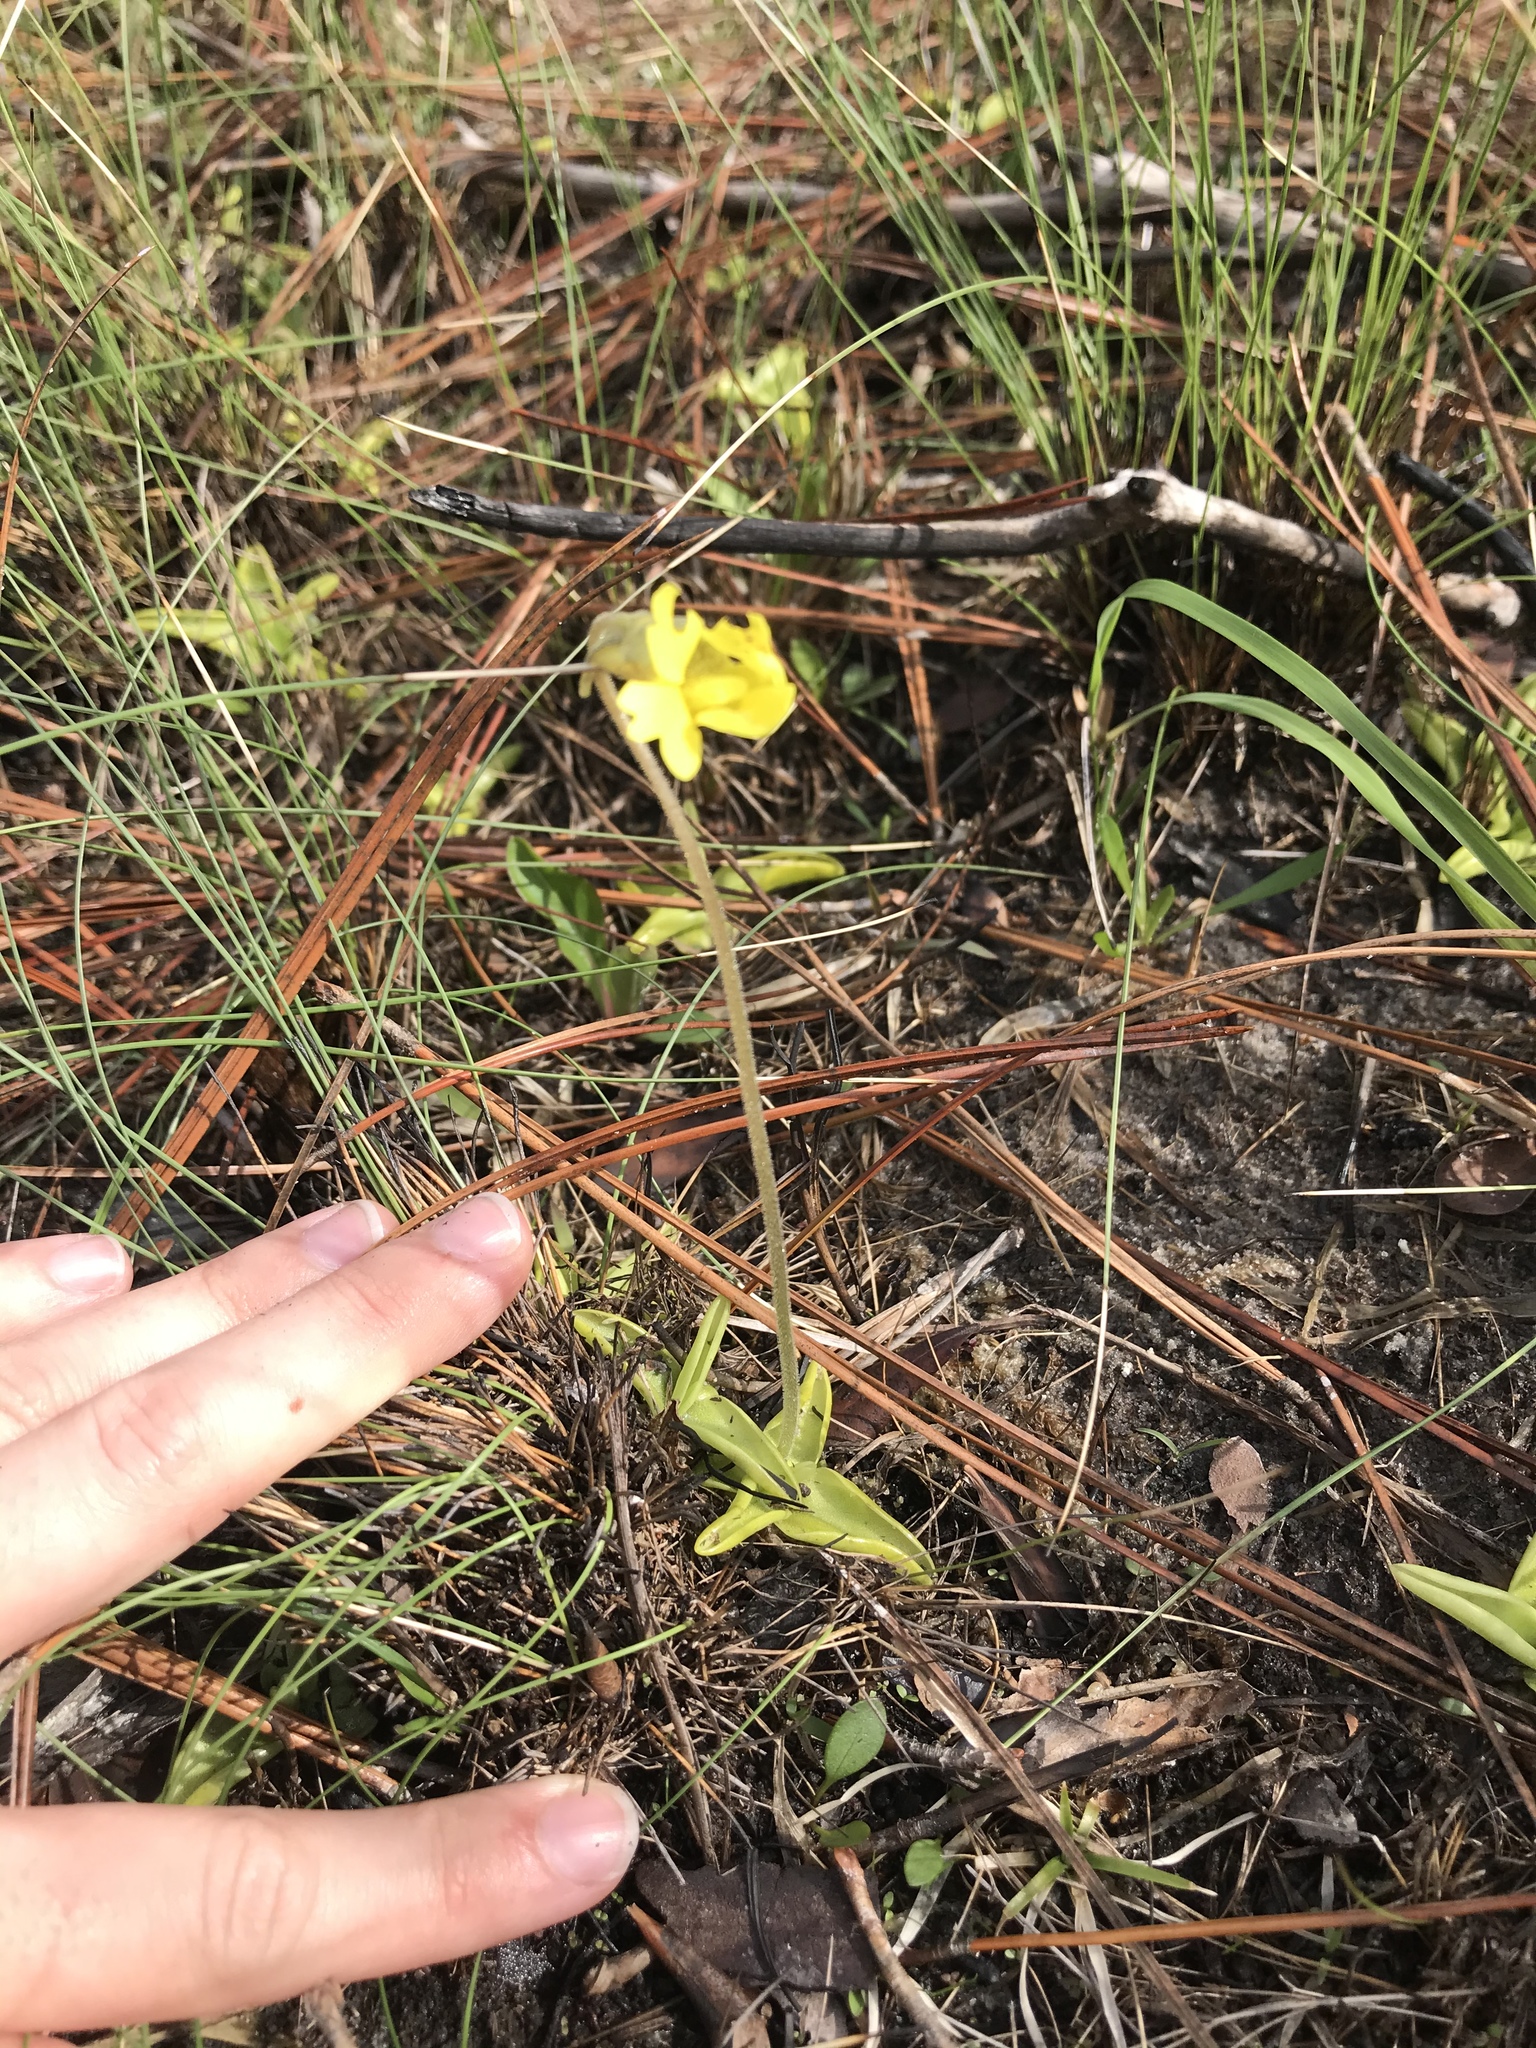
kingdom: Plantae
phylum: Tracheophyta
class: Magnoliopsida
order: Lamiales
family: Lentibulariaceae
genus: Pinguicula
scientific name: Pinguicula lutea
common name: Yellow butterwort
